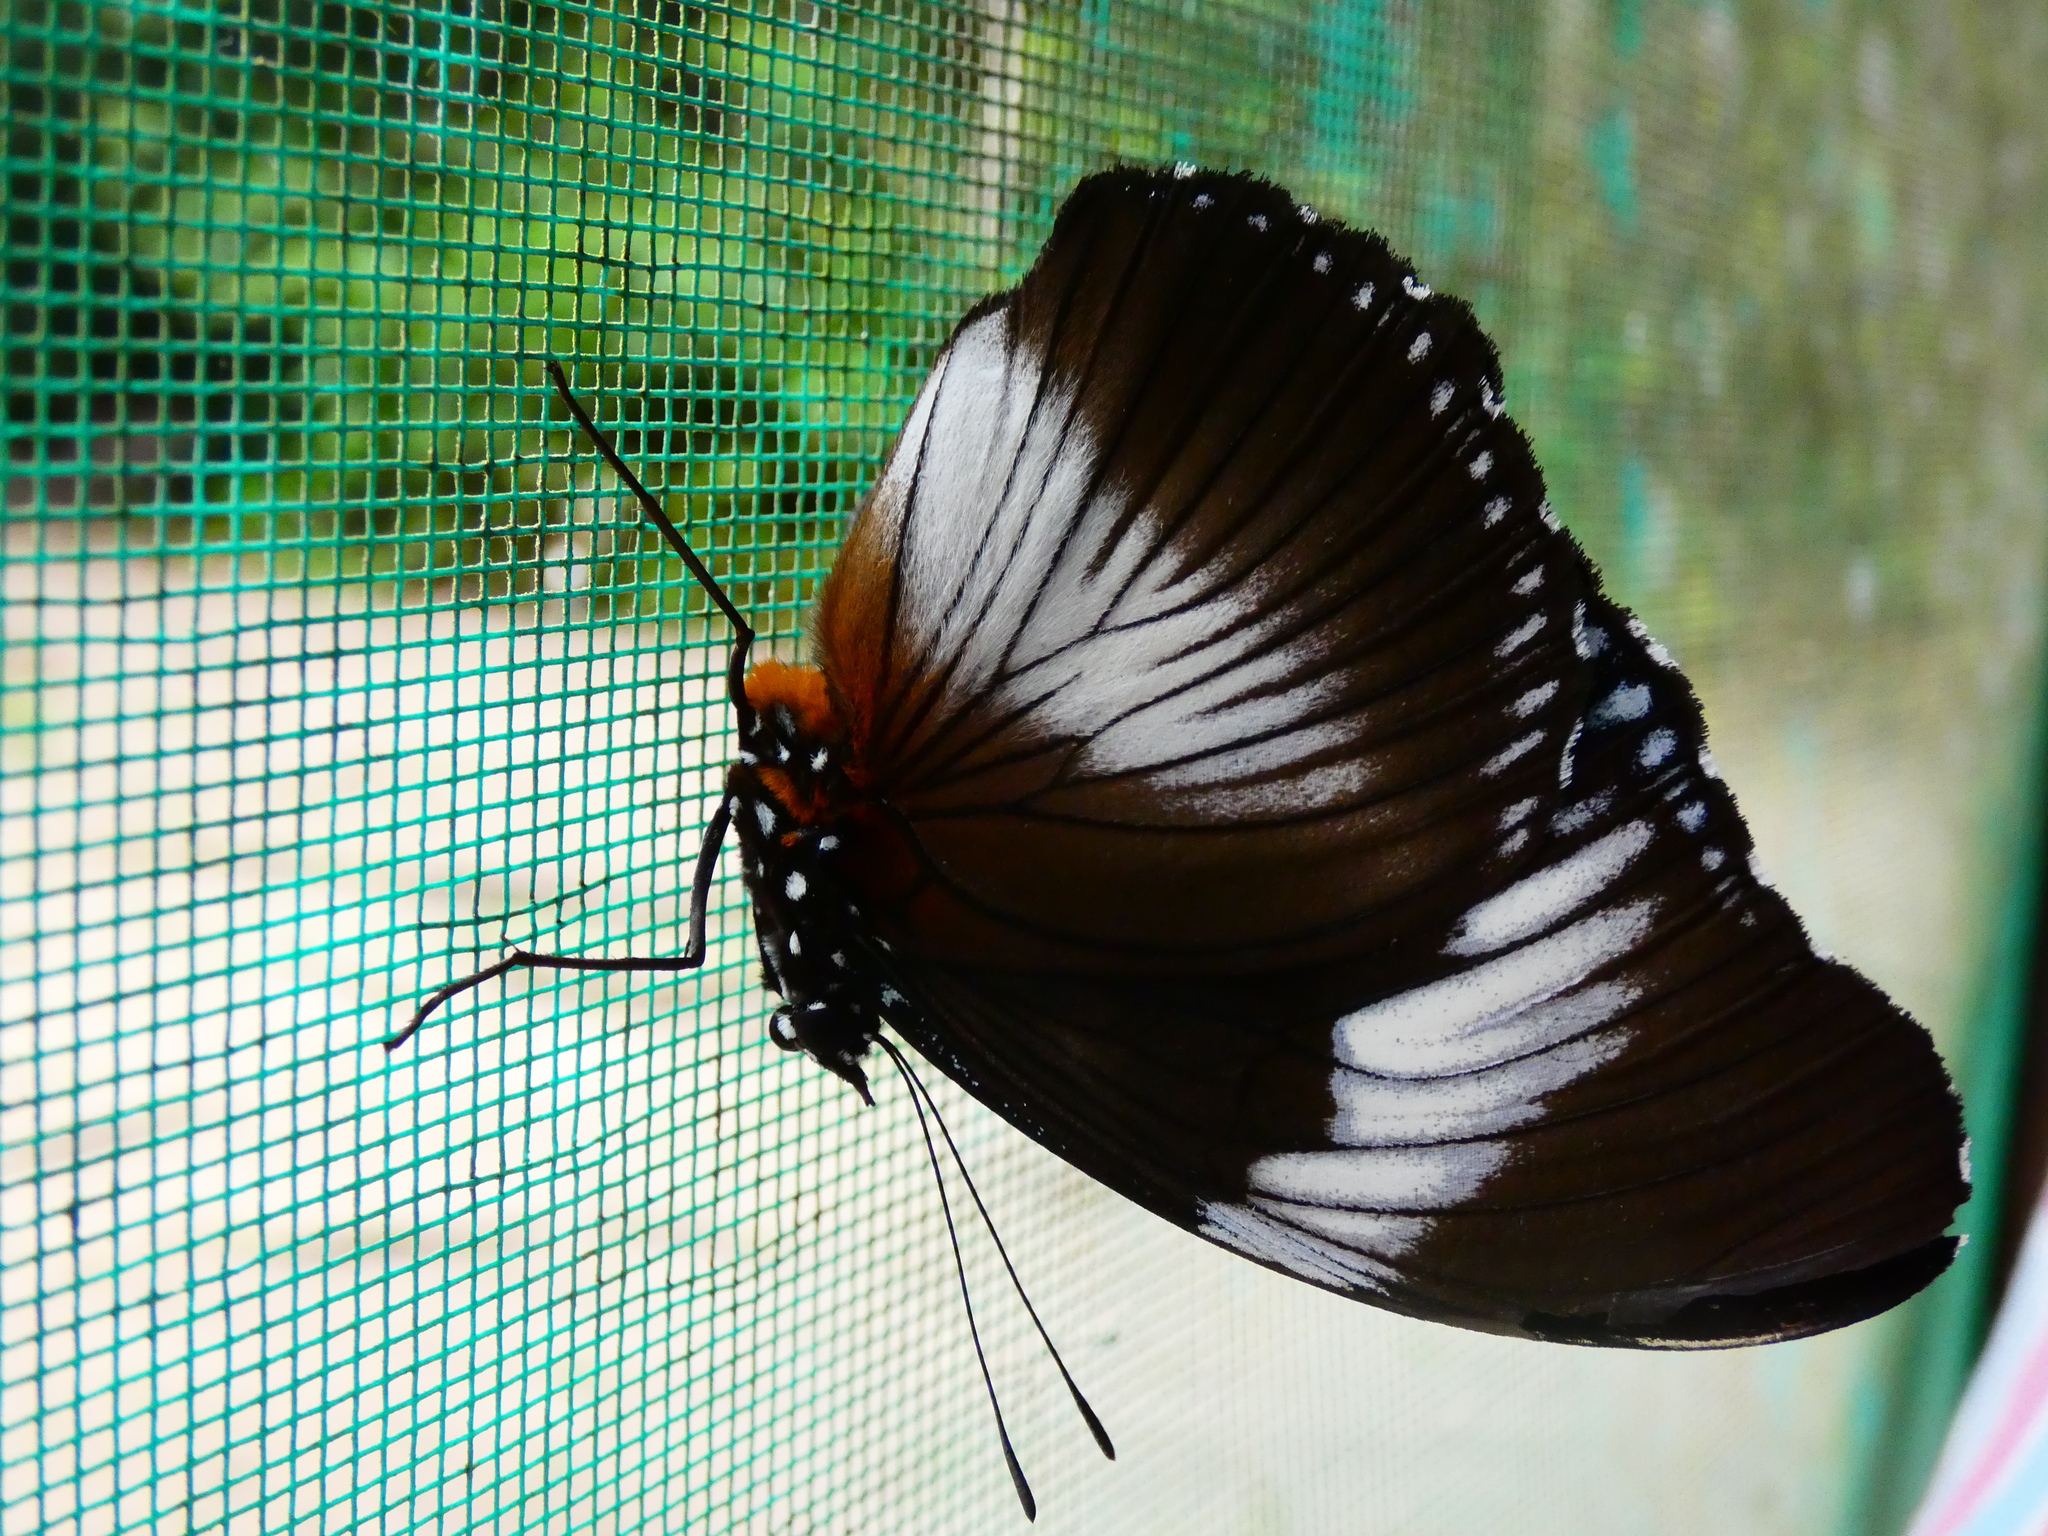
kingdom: Animalia
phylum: Arthropoda
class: Insecta
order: Lepidoptera
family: Nymphalidae
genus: Hypolimnas
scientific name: Hypolimnas monteironis
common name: Scarce blue diadem
